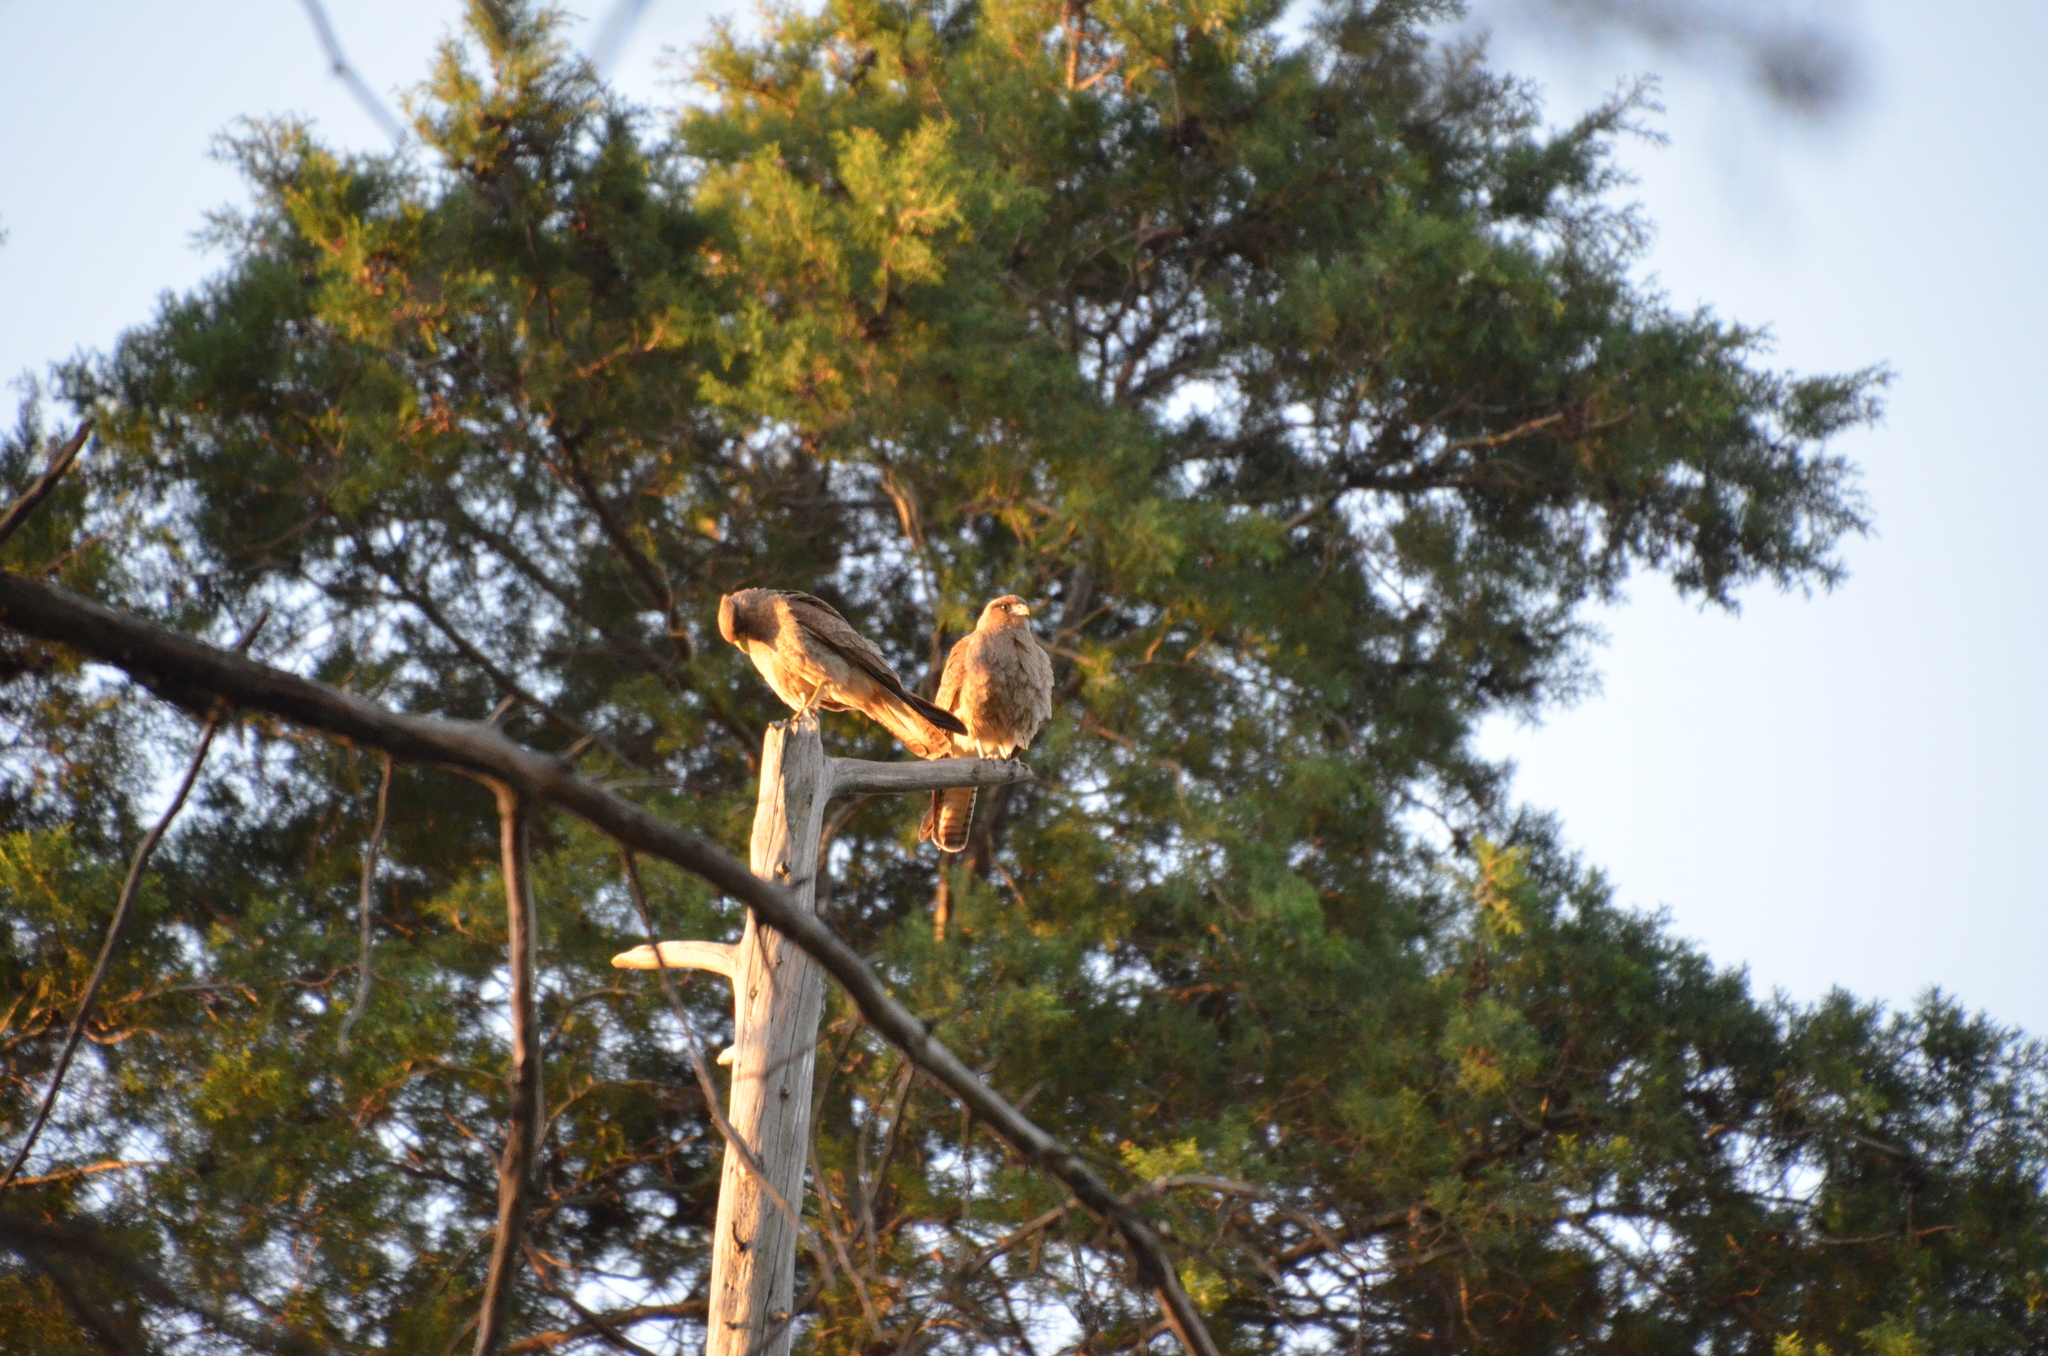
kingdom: Animalia
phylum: Chordata
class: Aves
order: Falconiformes
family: Falconidae
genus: Daptrius
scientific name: Daptrius
